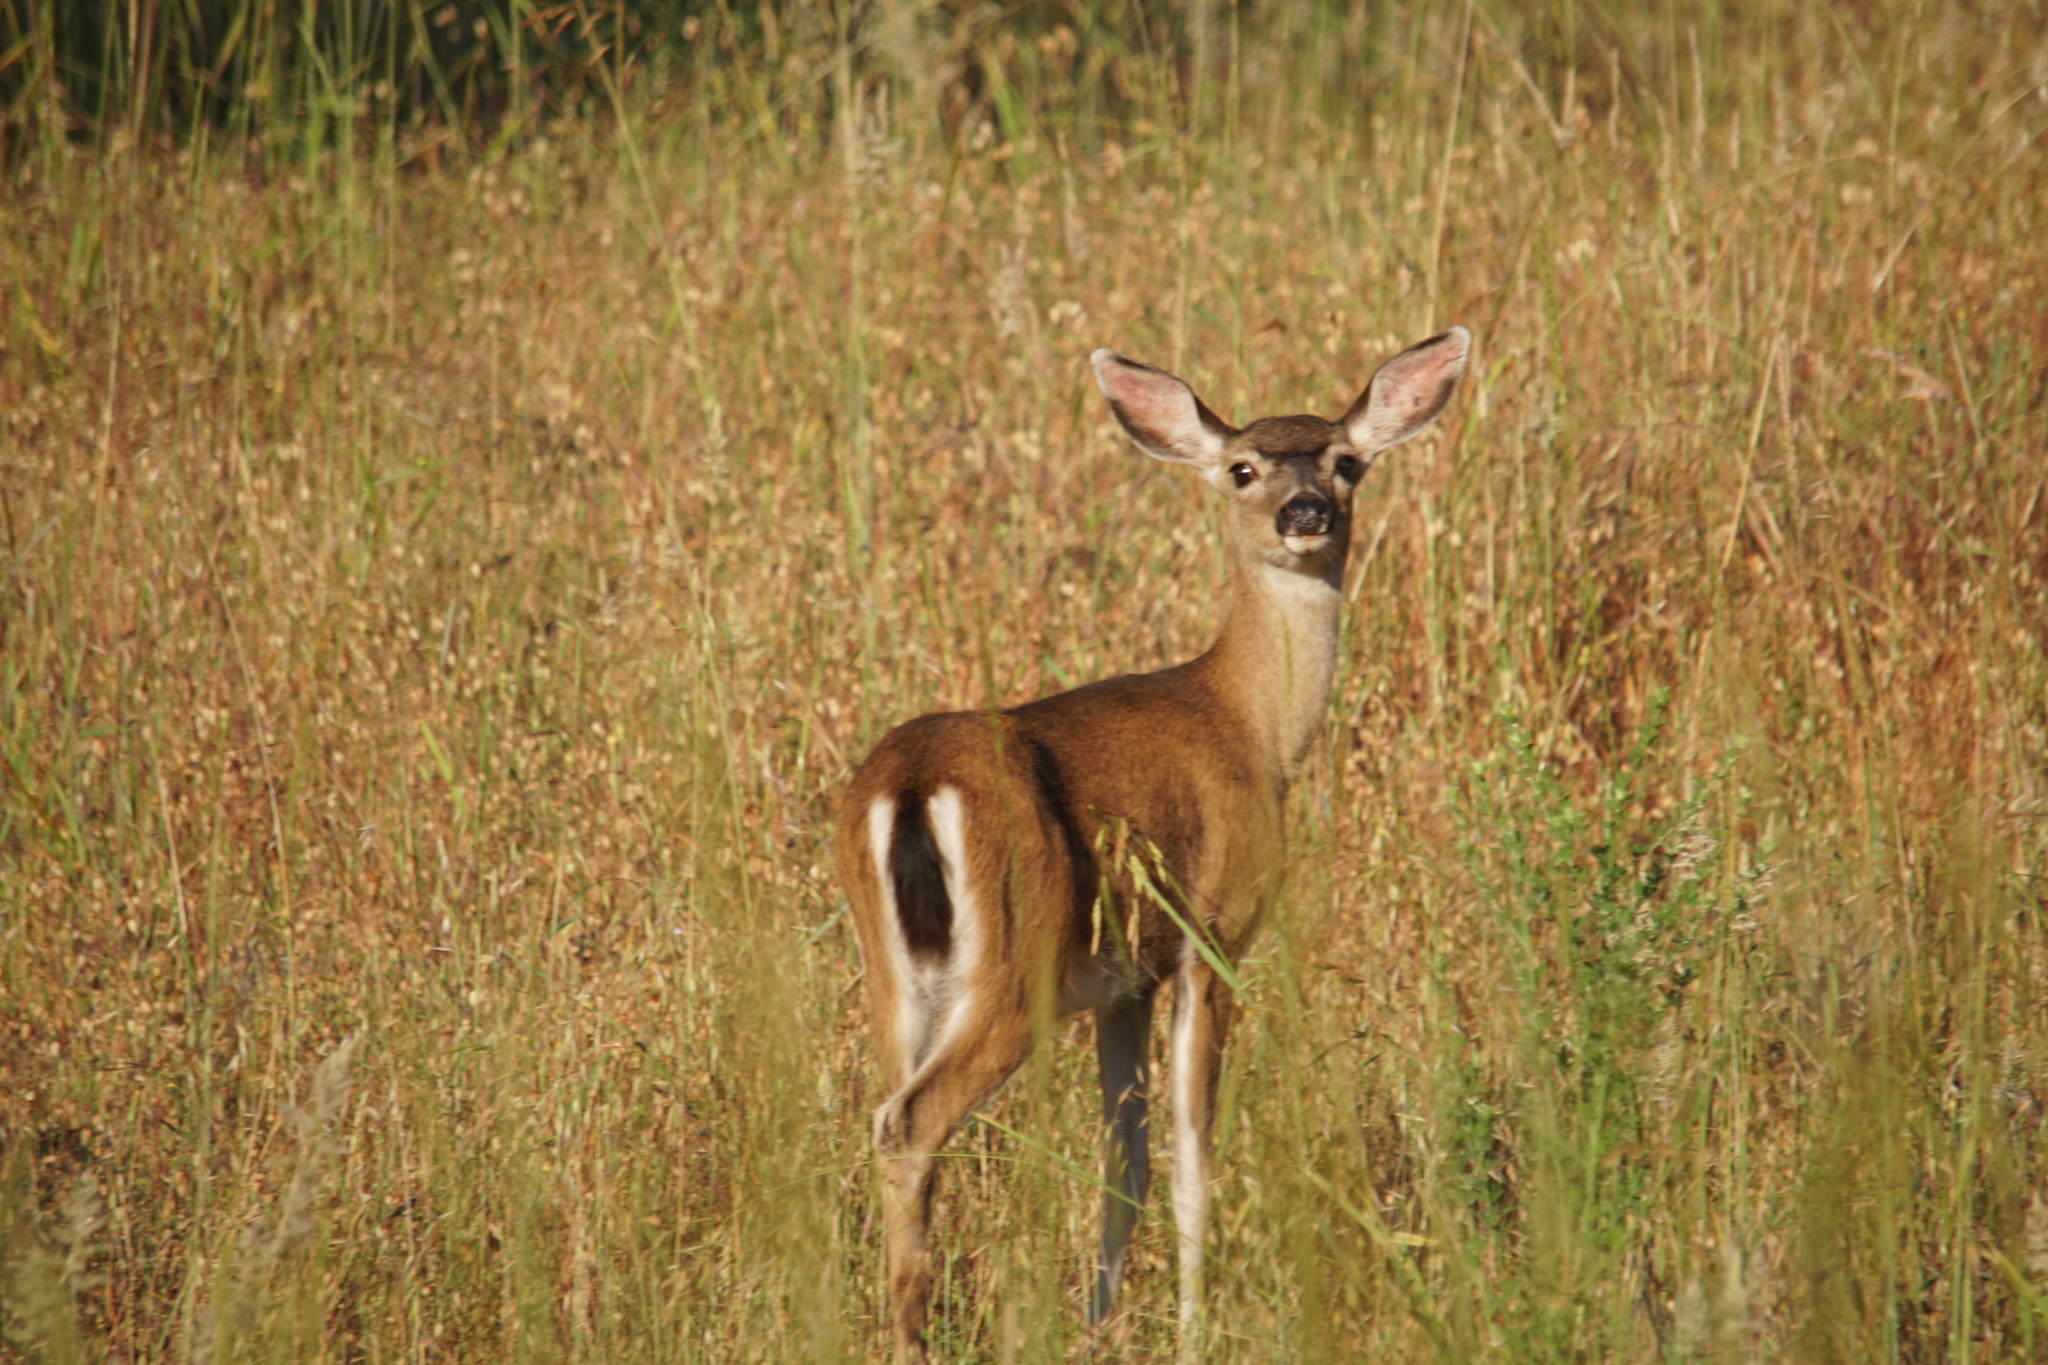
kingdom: Animalia
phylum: Chordata
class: Mammalia
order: Artiodactyla
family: Cervidae
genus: Odocoileus
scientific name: Odocoileus hemionus
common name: Mule deer
